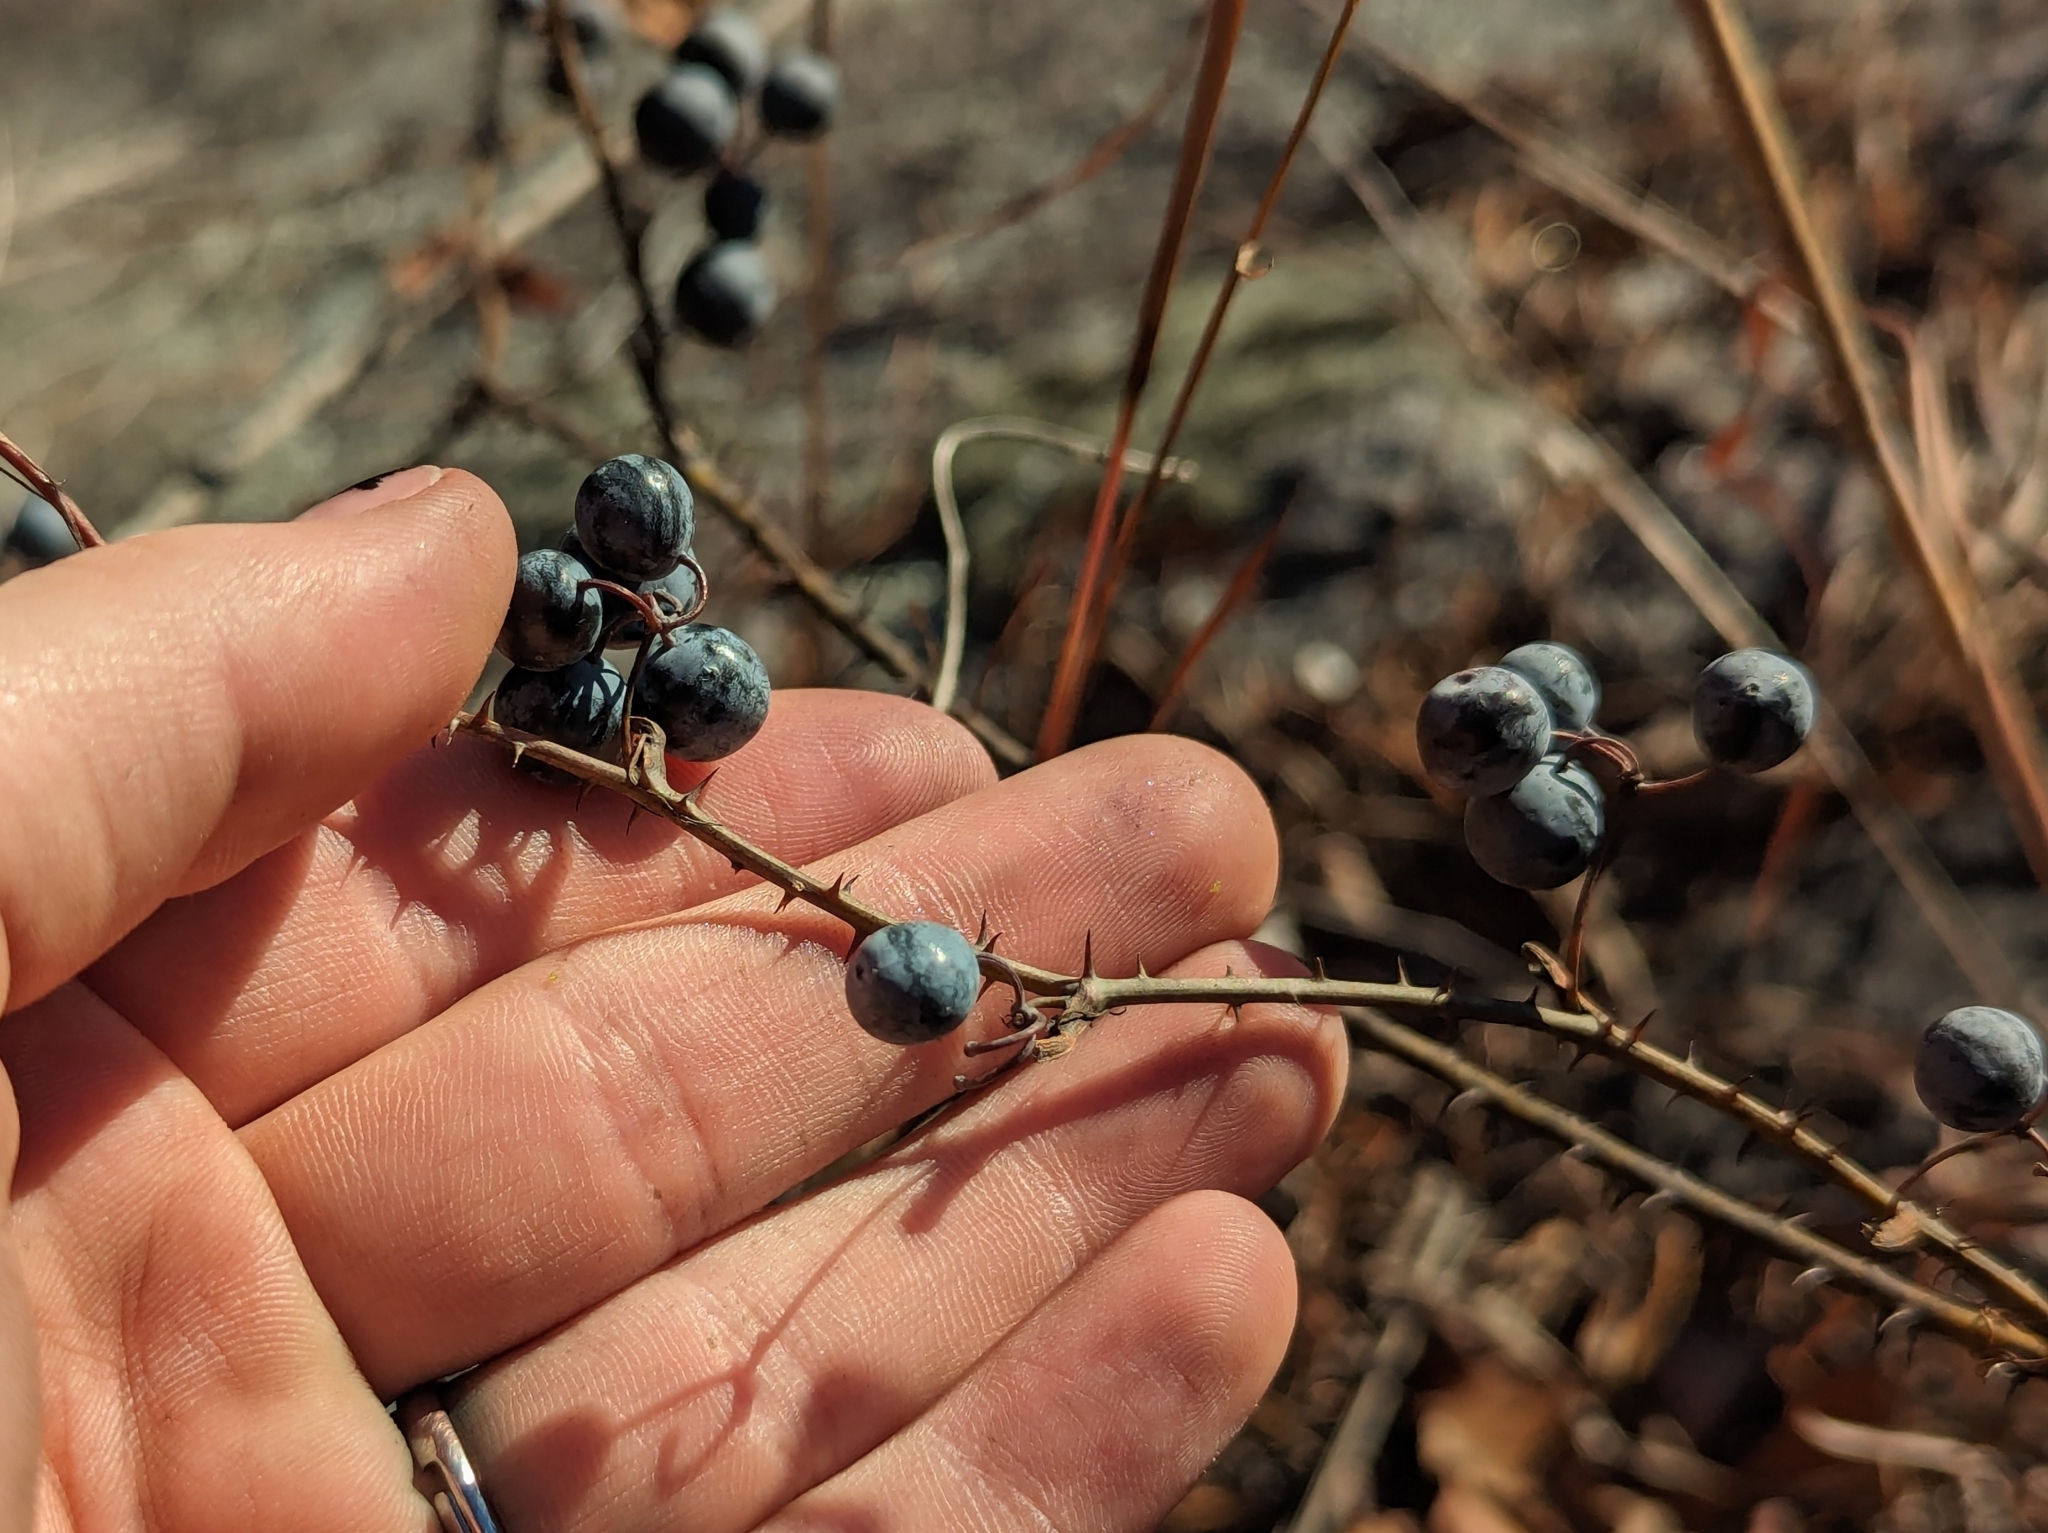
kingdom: Plantae
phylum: Tracheophyta
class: Liliopsida
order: Liliales
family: Smilacaceae
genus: Smilax
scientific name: Smilax glauca
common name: Cat greenbrier
